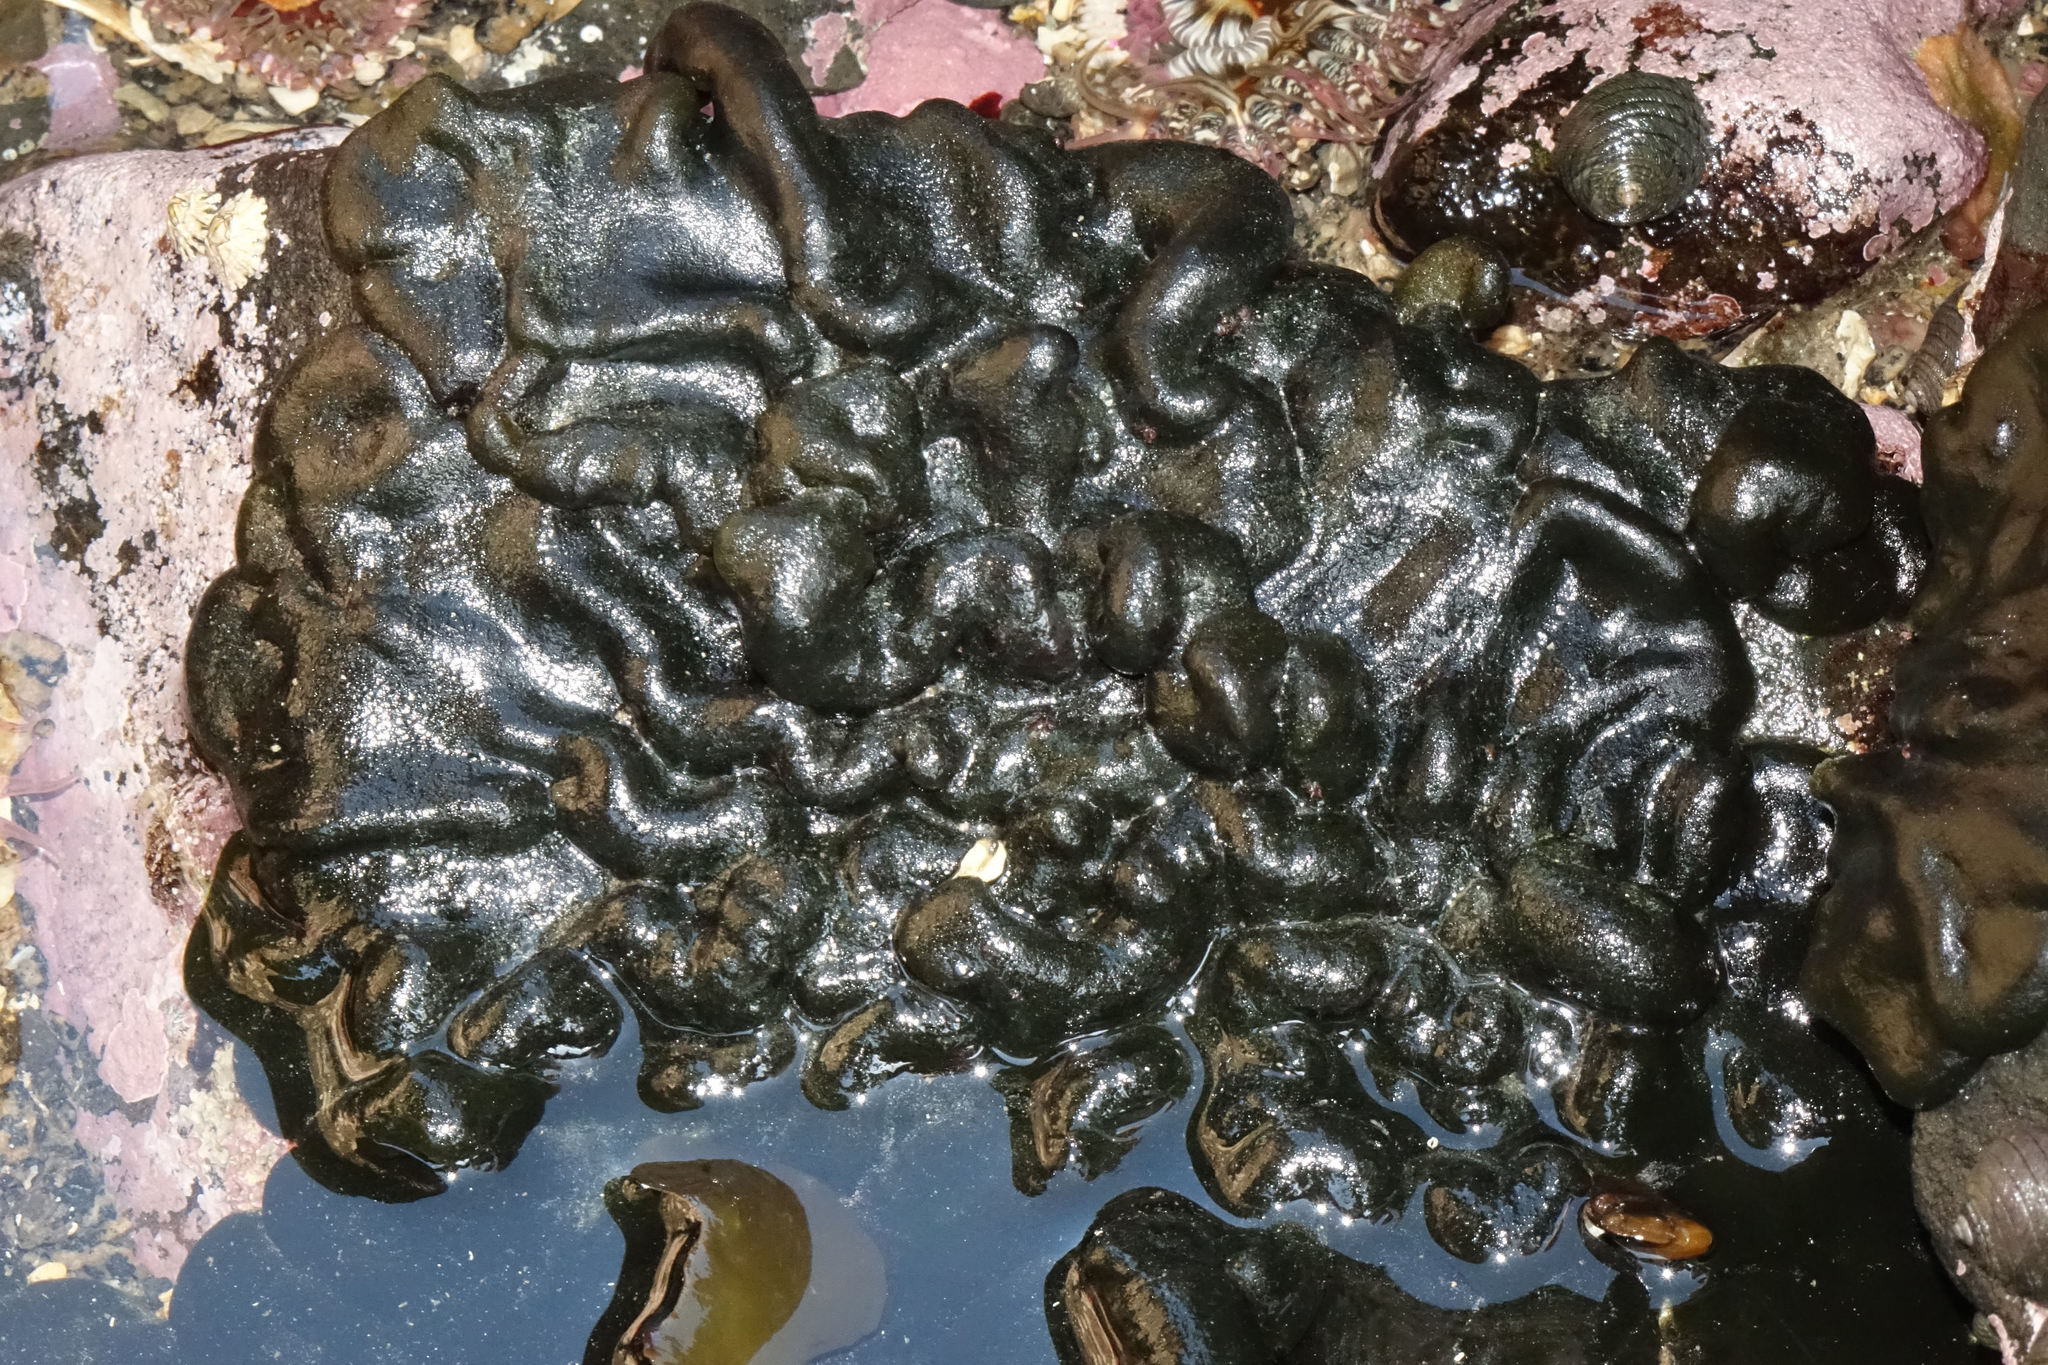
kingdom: Plantae
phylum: Chlorophyta
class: Ulvophyceae
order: Bryopsidales
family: Codiaceae
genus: Codium
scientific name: Codium convolutum
